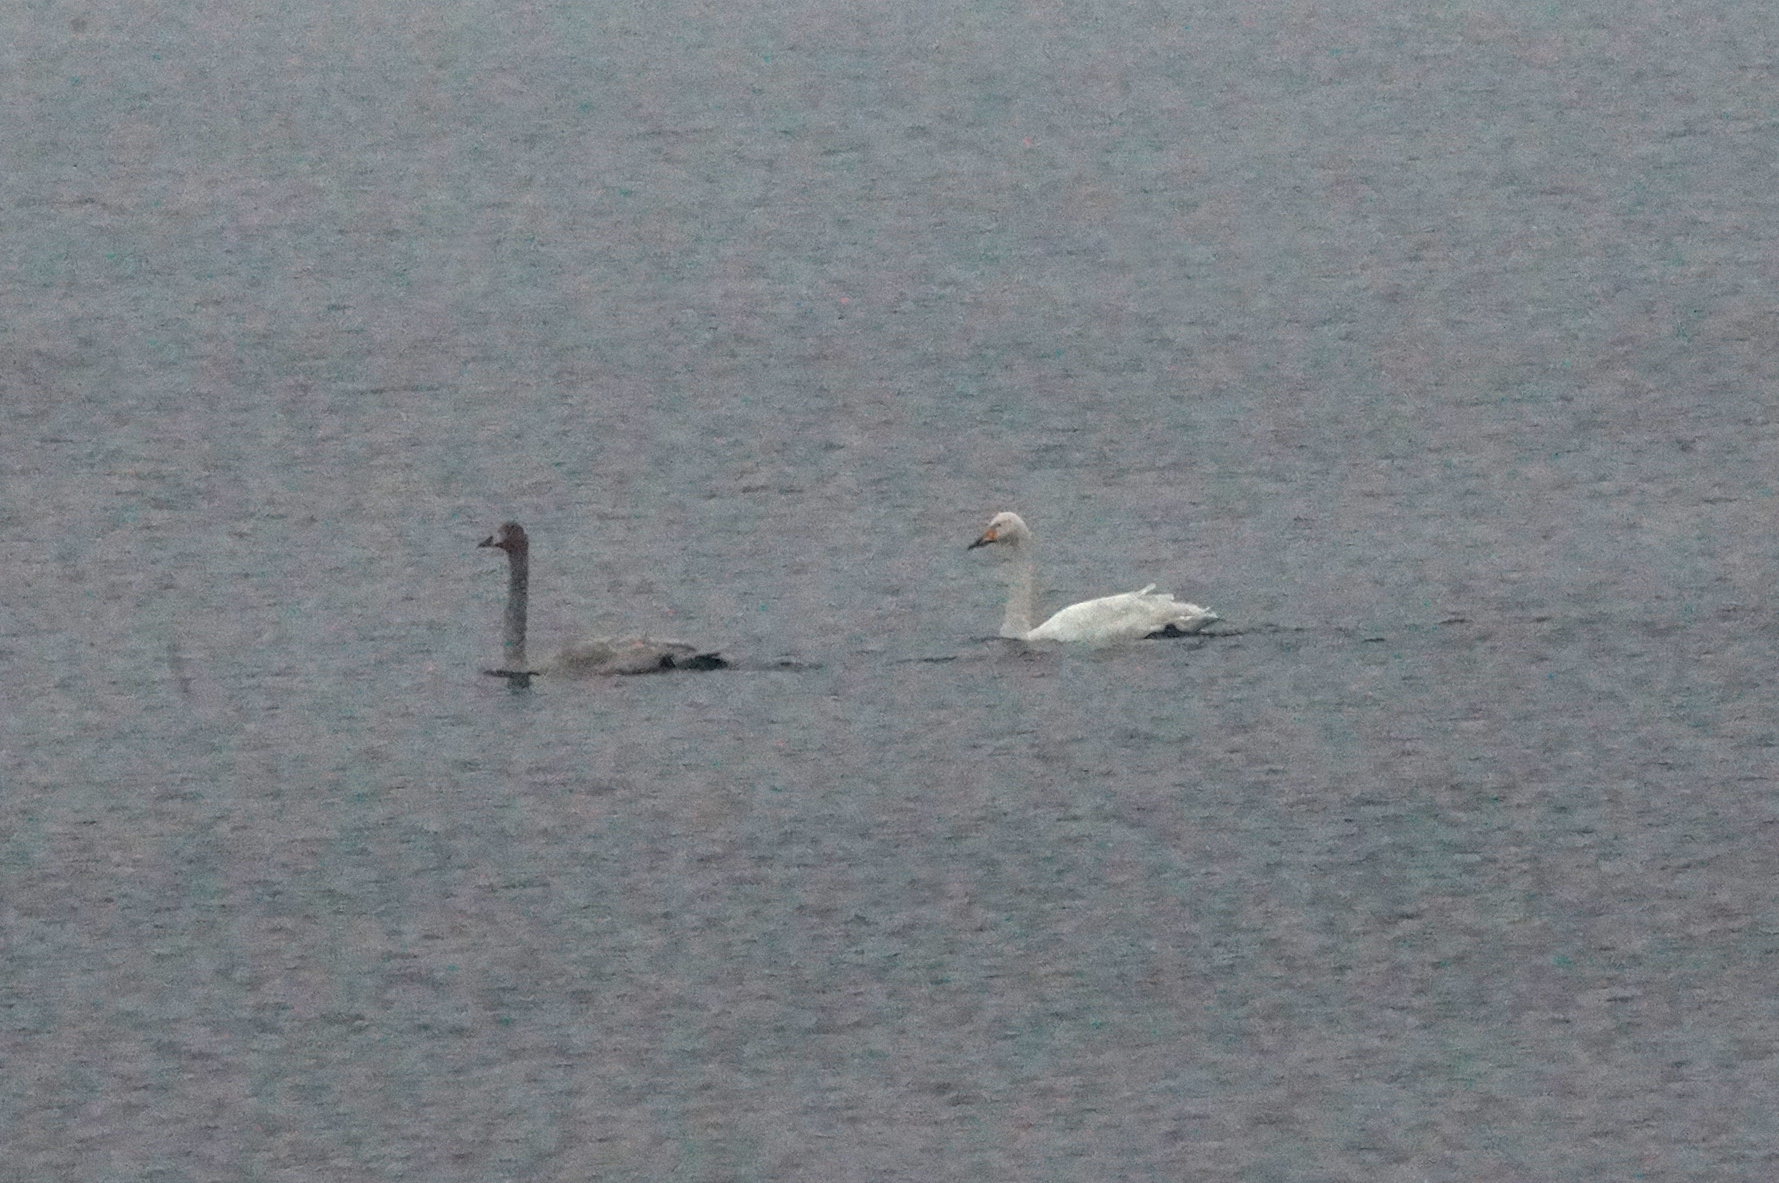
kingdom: Animalia
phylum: Chordata
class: Aves
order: Anseriformes
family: Anatidae
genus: Cygnus
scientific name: Cygnus cygnus
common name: Whooper swan
